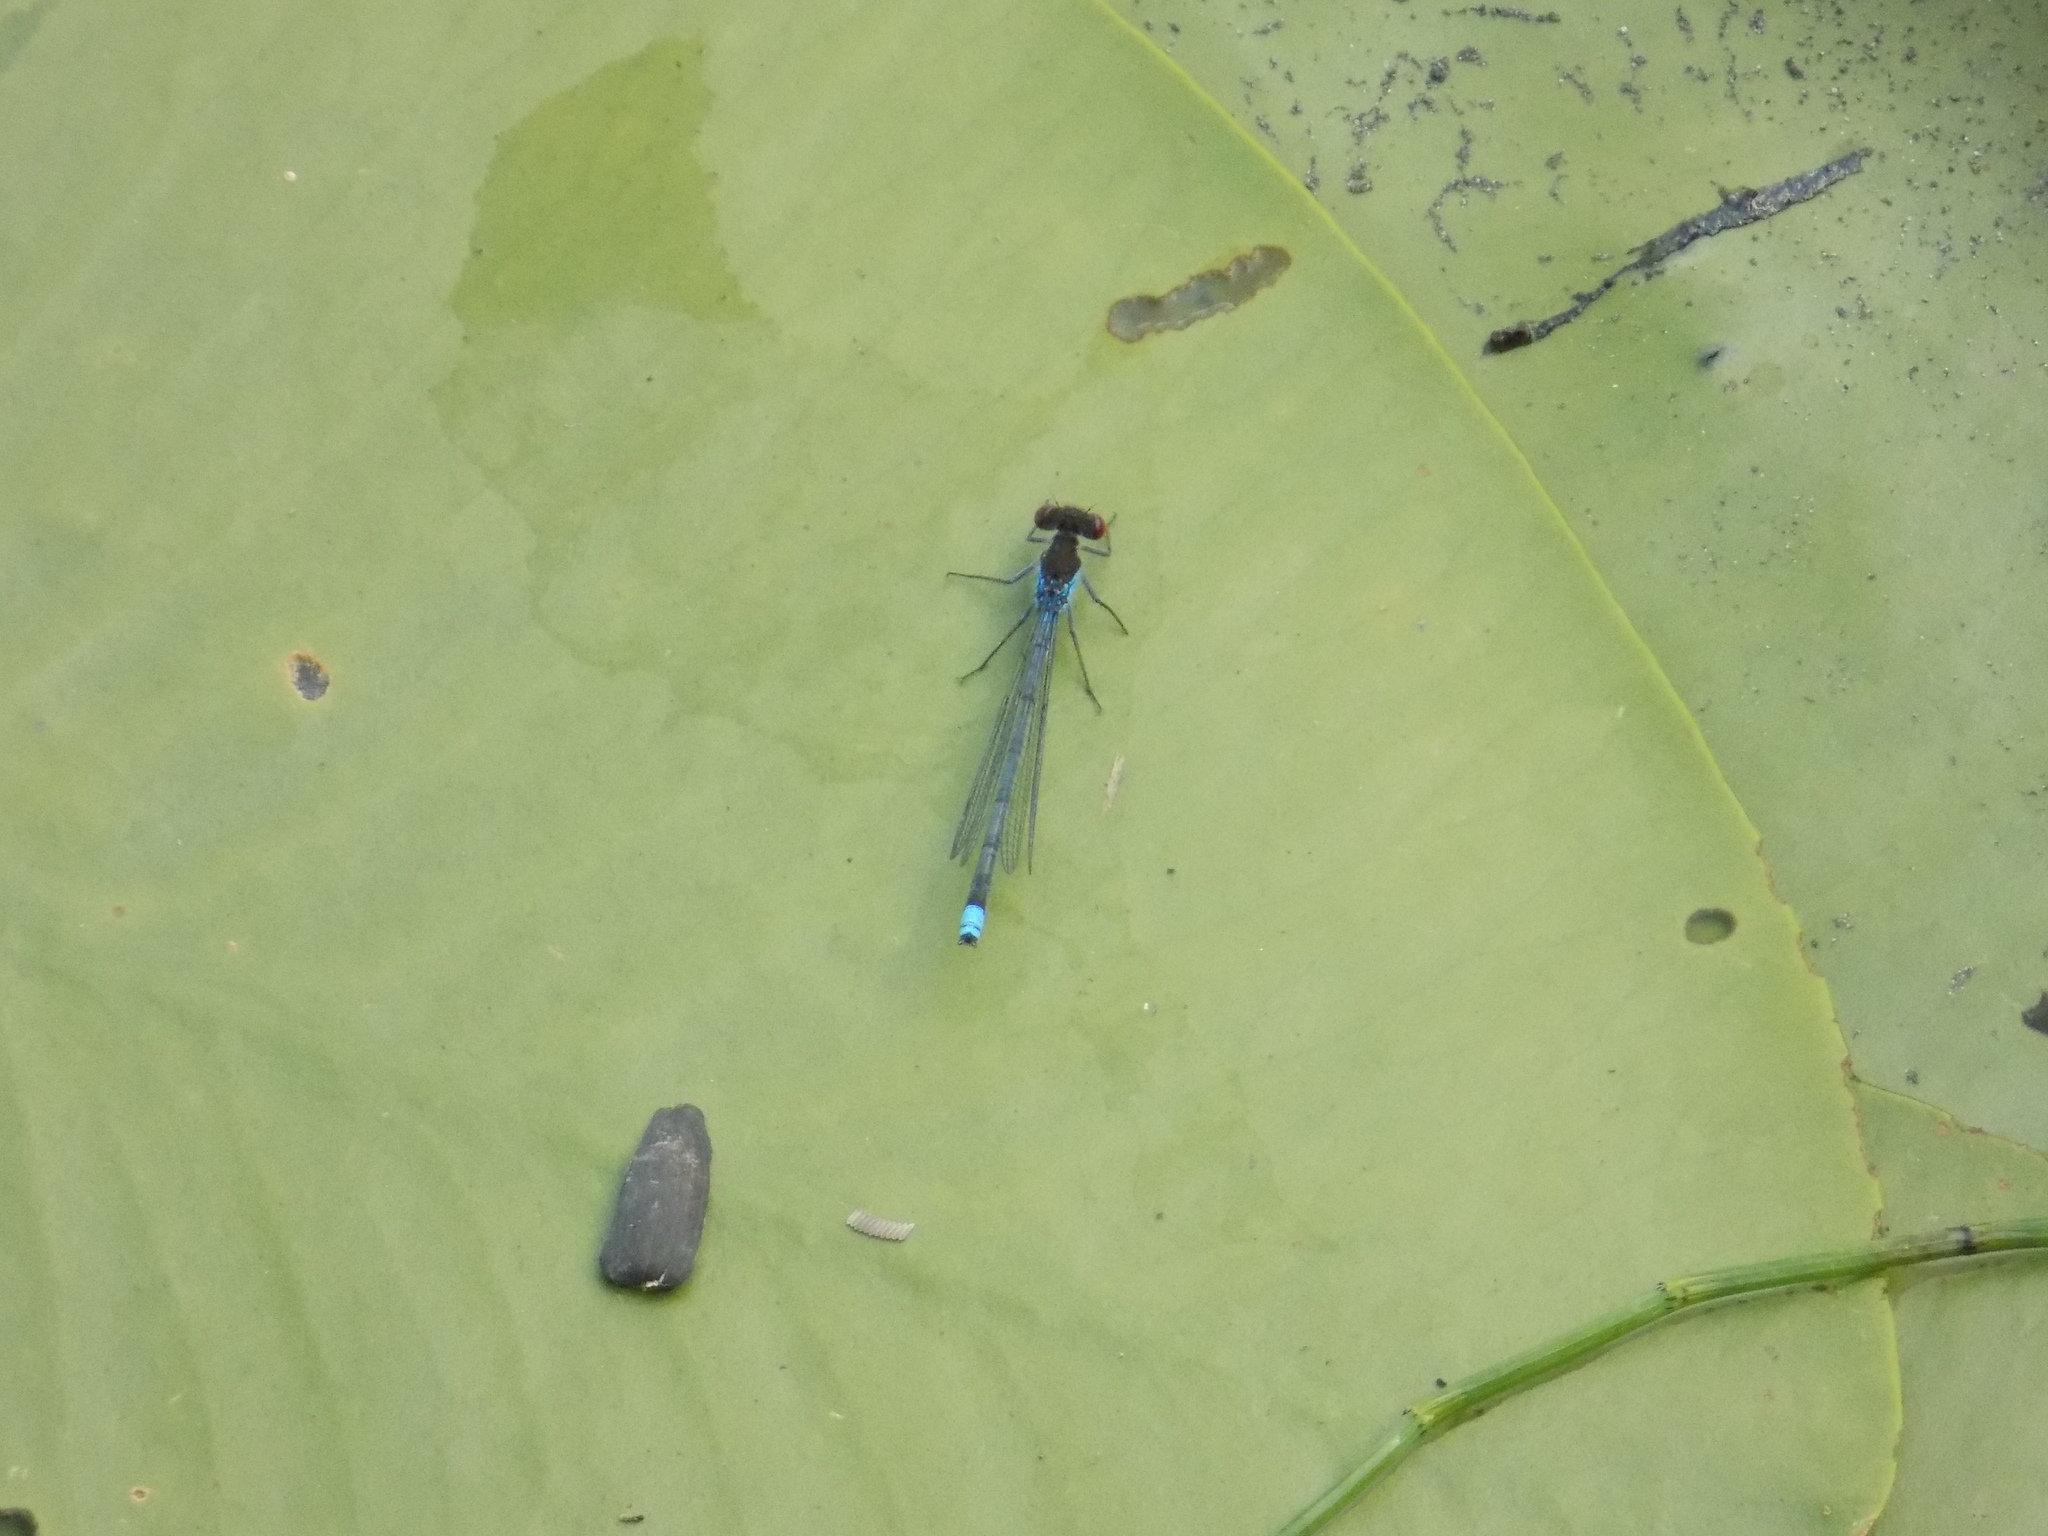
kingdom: Animalia
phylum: Arthropoda
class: Insecta
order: Odonata
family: Coenagrionidae
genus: Erythromma
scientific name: Erythromma najas
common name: Red-eyed damselfly
